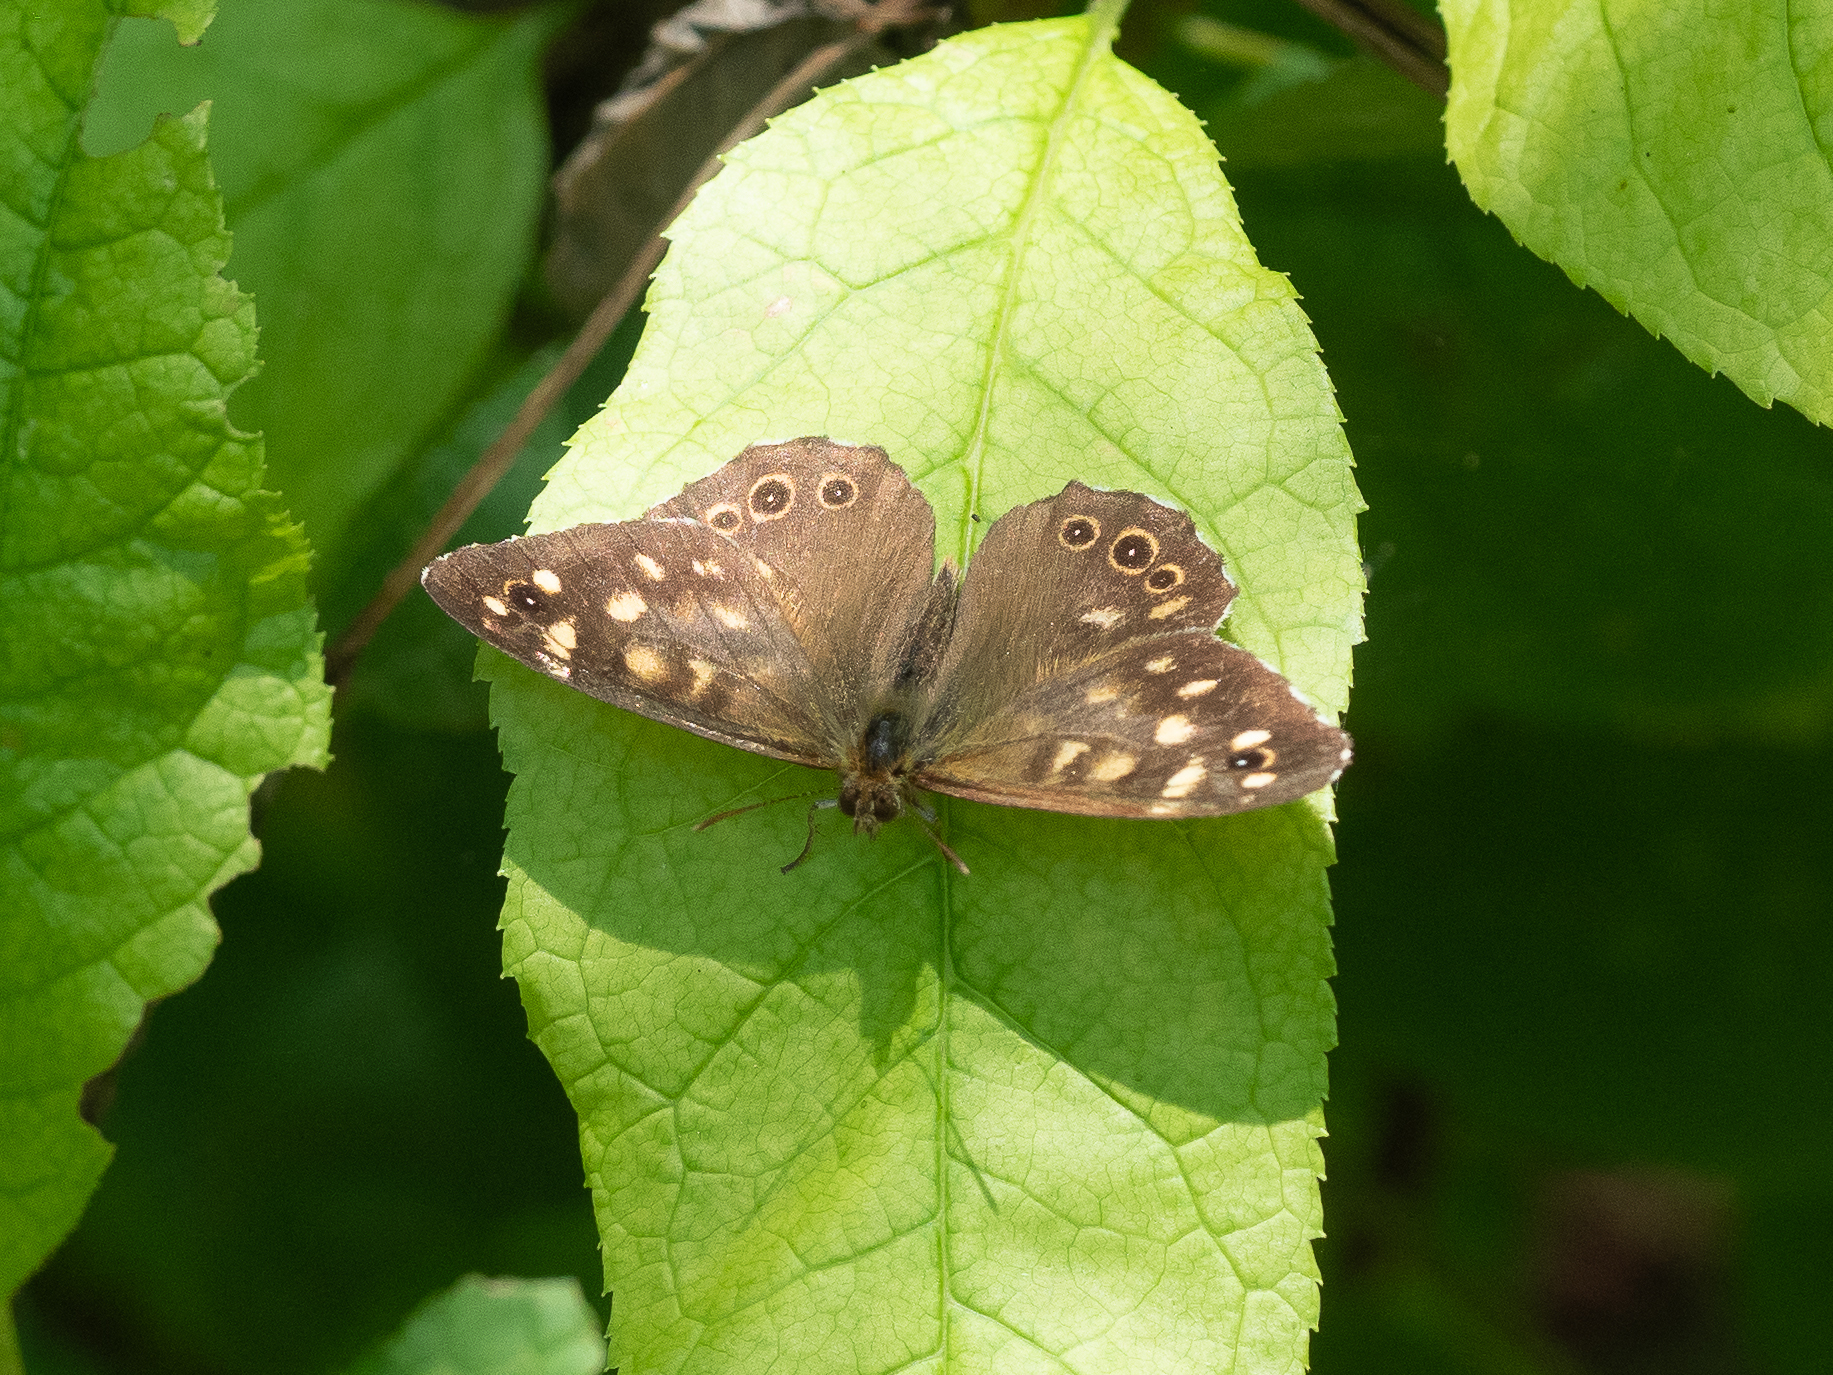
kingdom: Animalia
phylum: Arthropoda
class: Insecta
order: Lepidoptera
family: Nymphalidae
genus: Pararge
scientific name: Pararge aegeria
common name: Speckled wood
